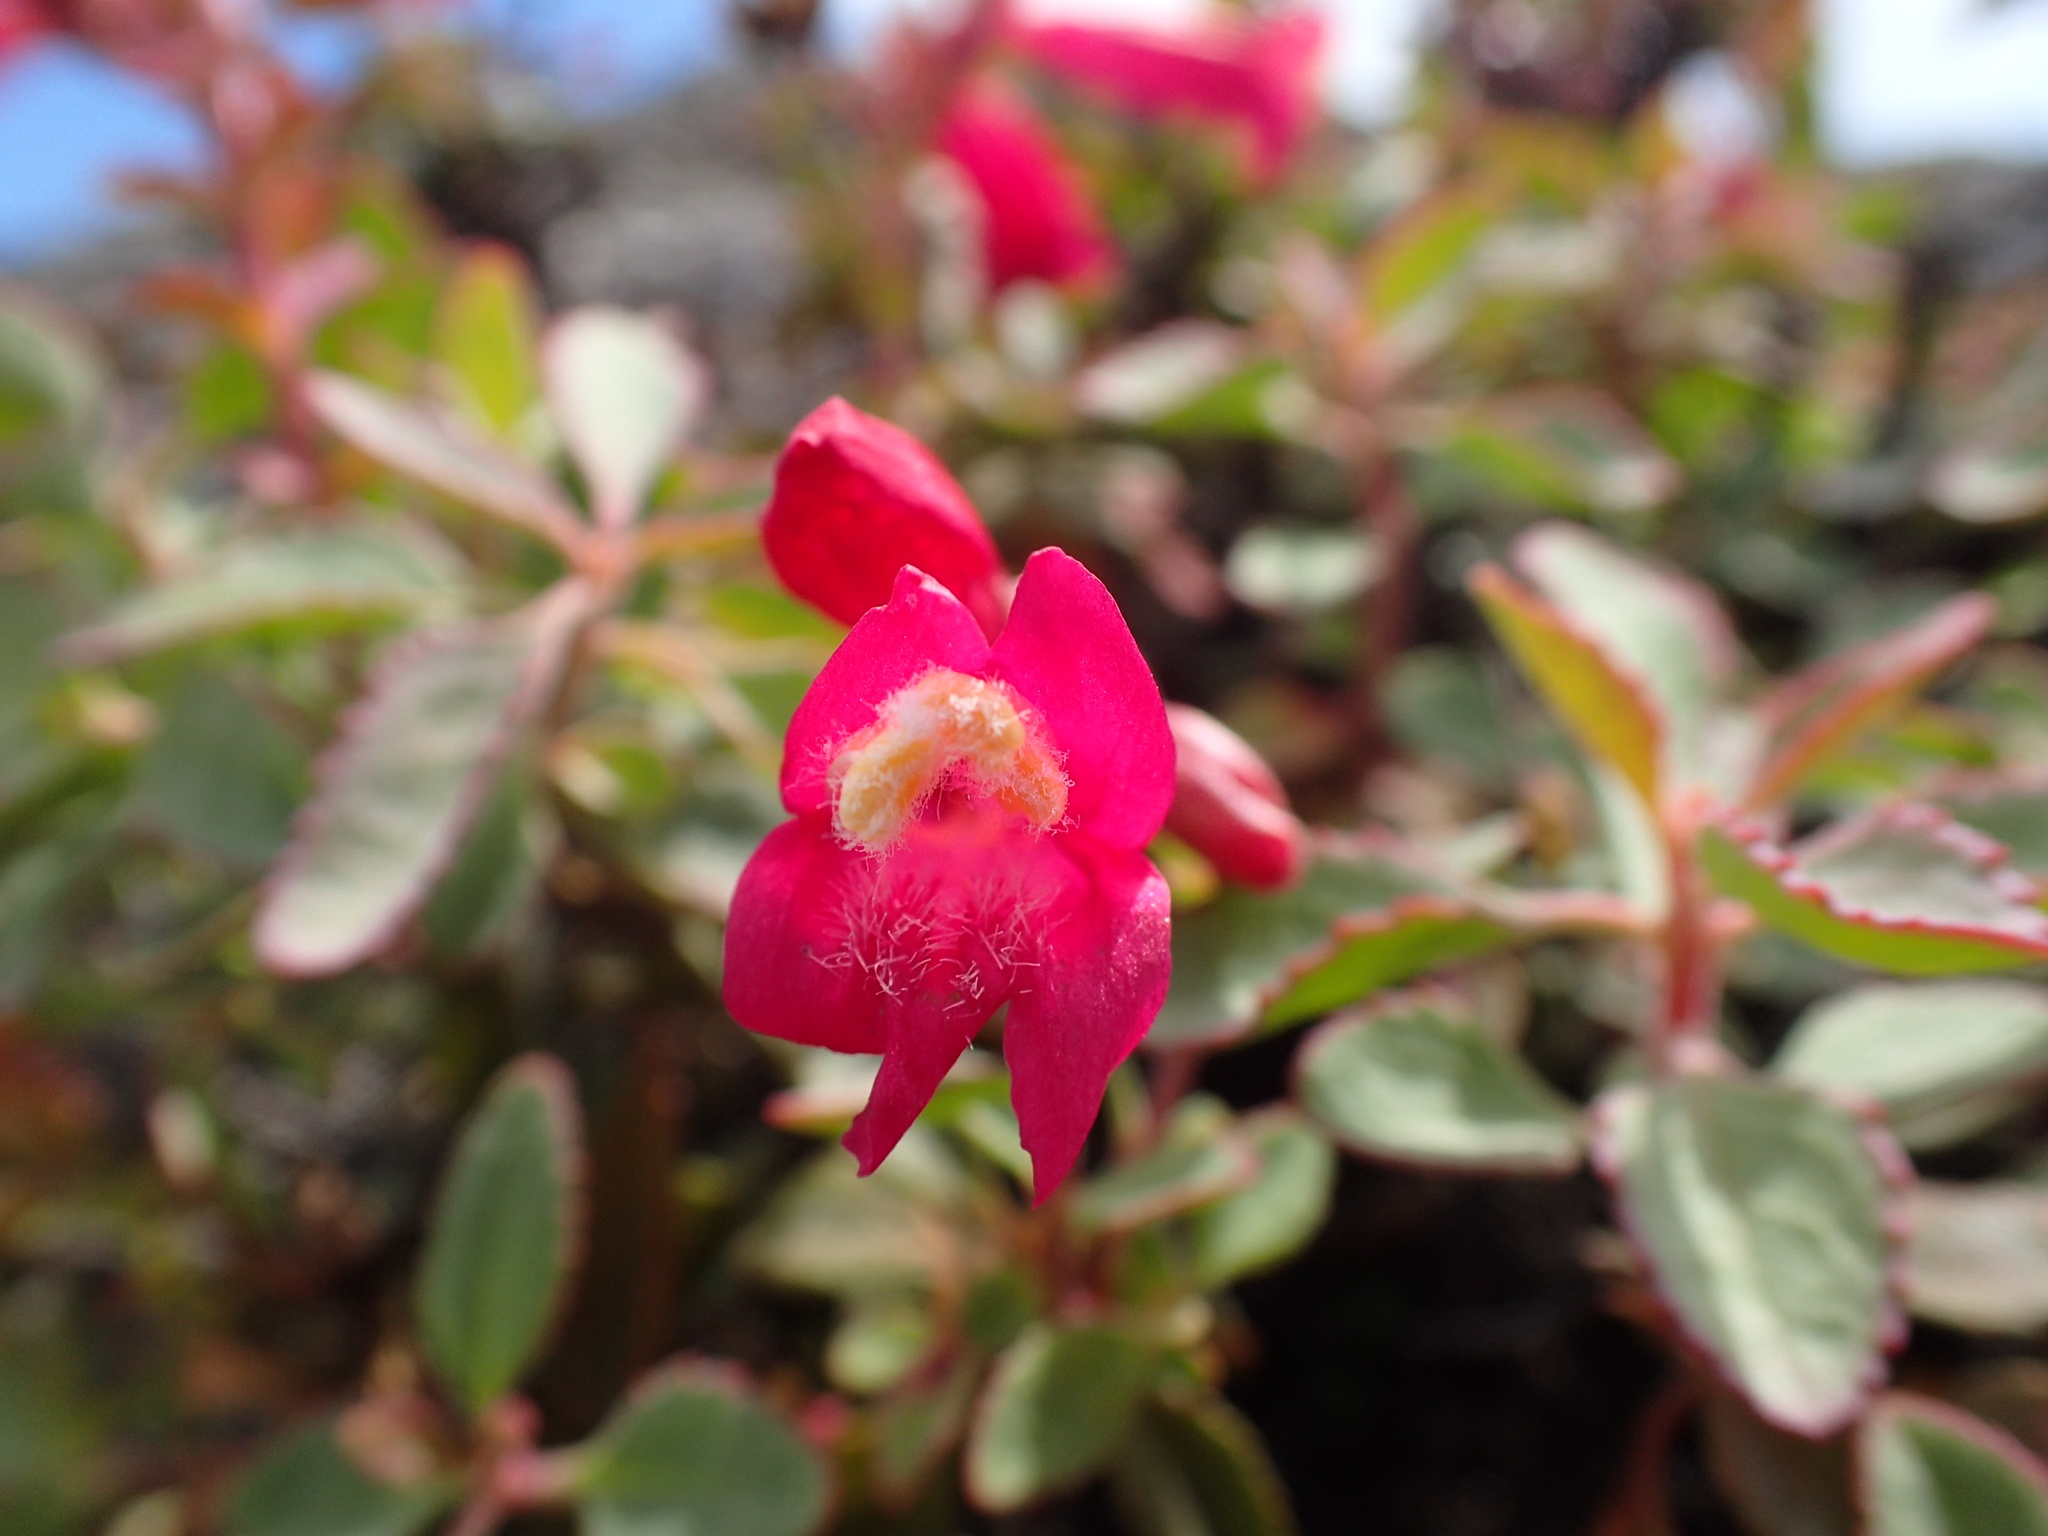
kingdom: Plantae
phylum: Tracheophyta
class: Magnoliopsida
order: Lamiales
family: Plantaginaceae
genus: Penstemon
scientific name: Penstemon newberryi
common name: Mountain-pride
